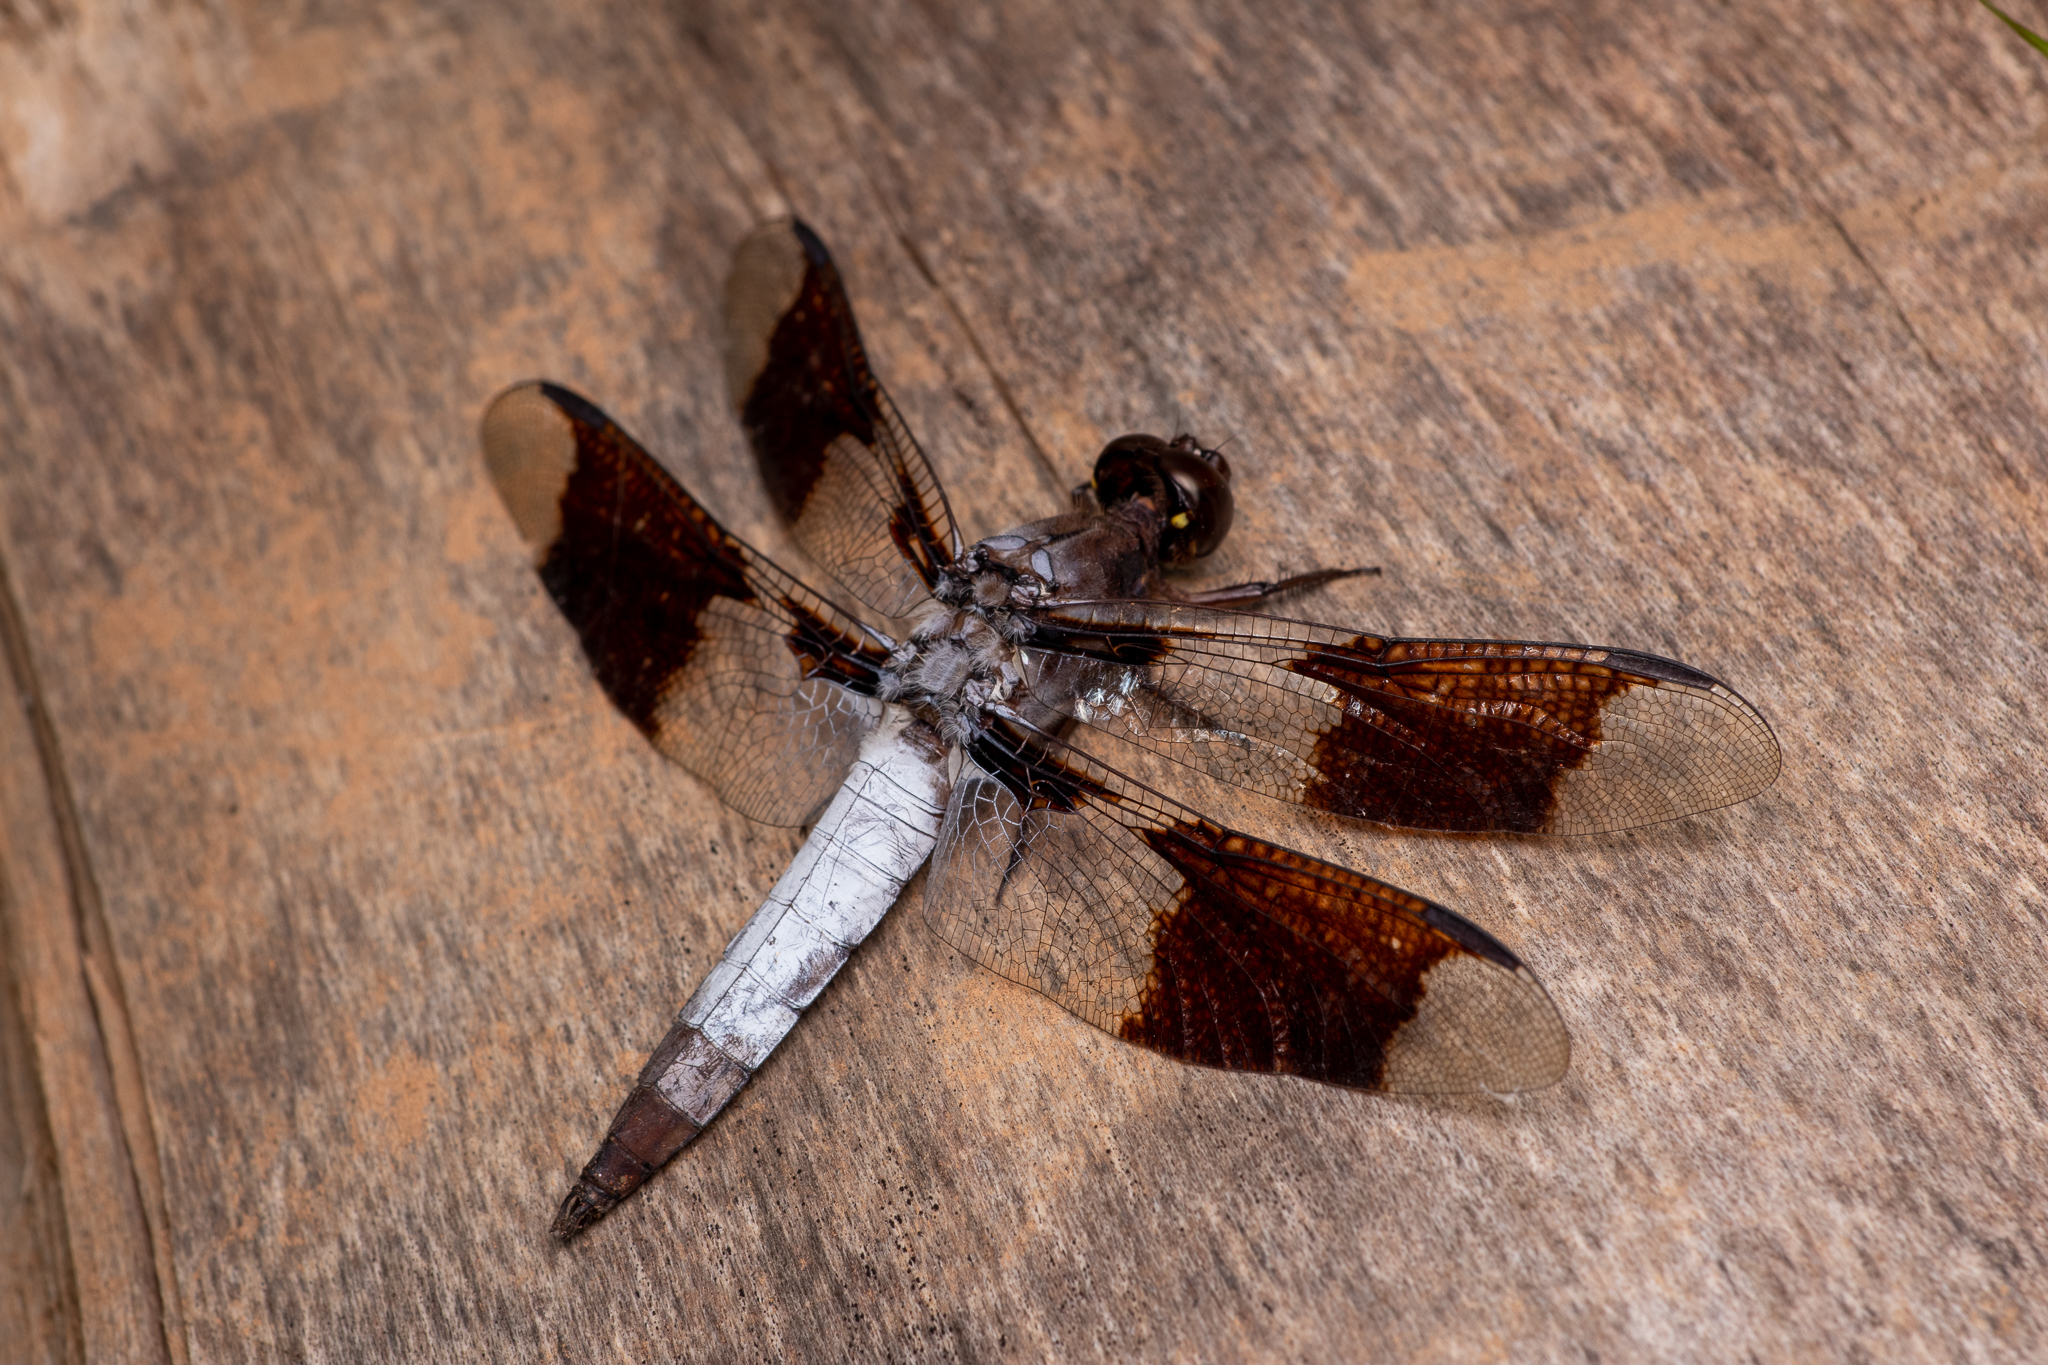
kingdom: Animalia
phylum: Arthropoda
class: Insecta
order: Odonata
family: Libellulidae
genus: Plathemis
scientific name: Plathemis lydia
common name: Common whitetail
